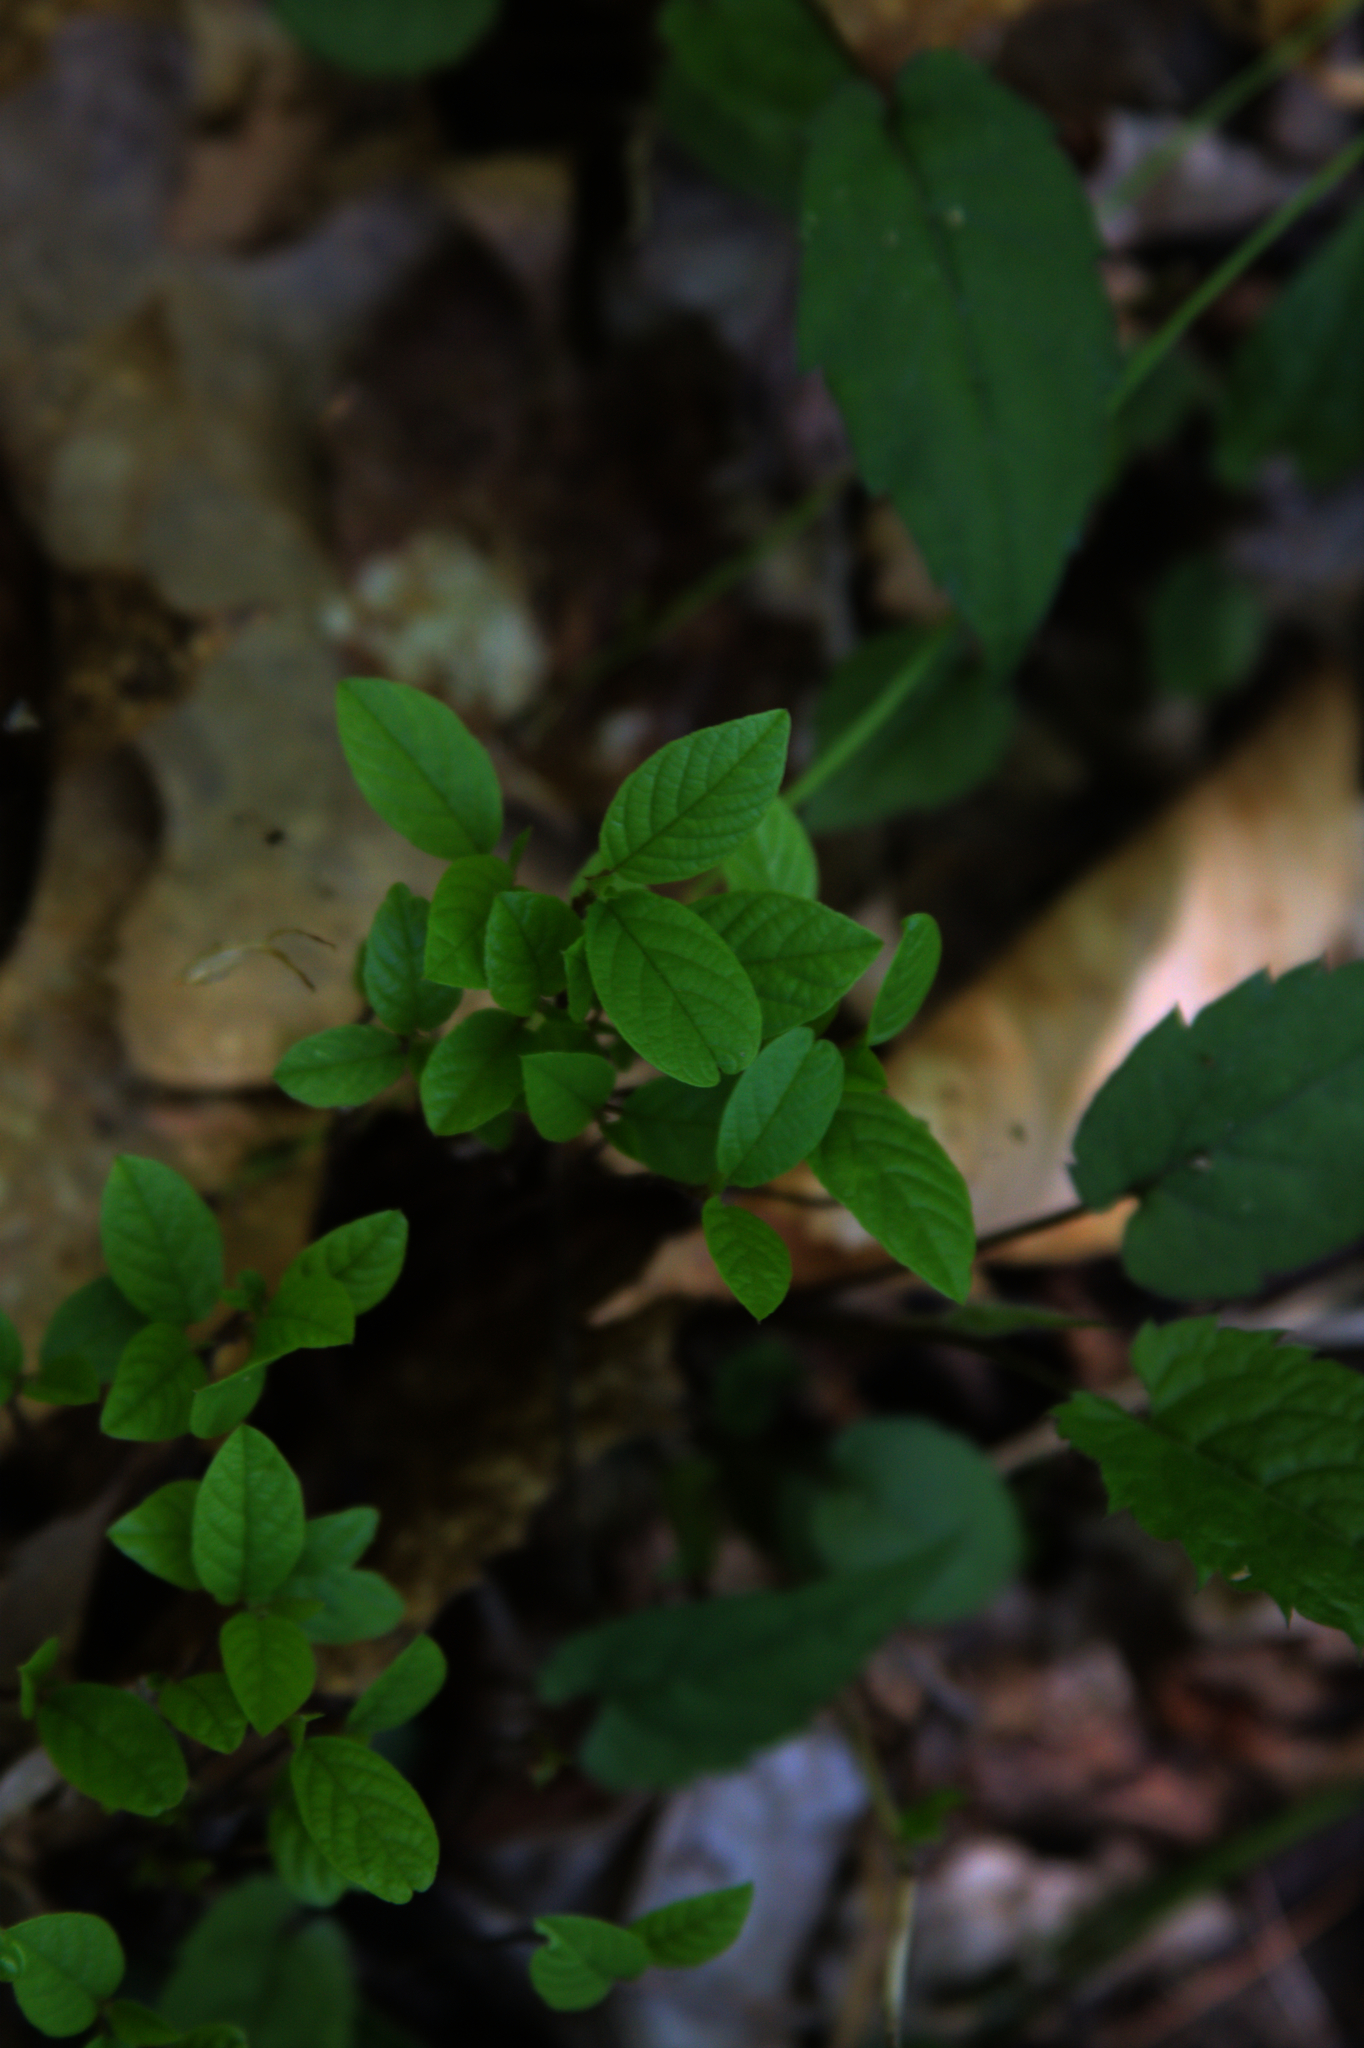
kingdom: Plantae
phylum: Tracheophyta
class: Magnoliopsida
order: Rosales
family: Rhamnaceae
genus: Frangula
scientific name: Frangula alnus
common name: Alder buckthorn
